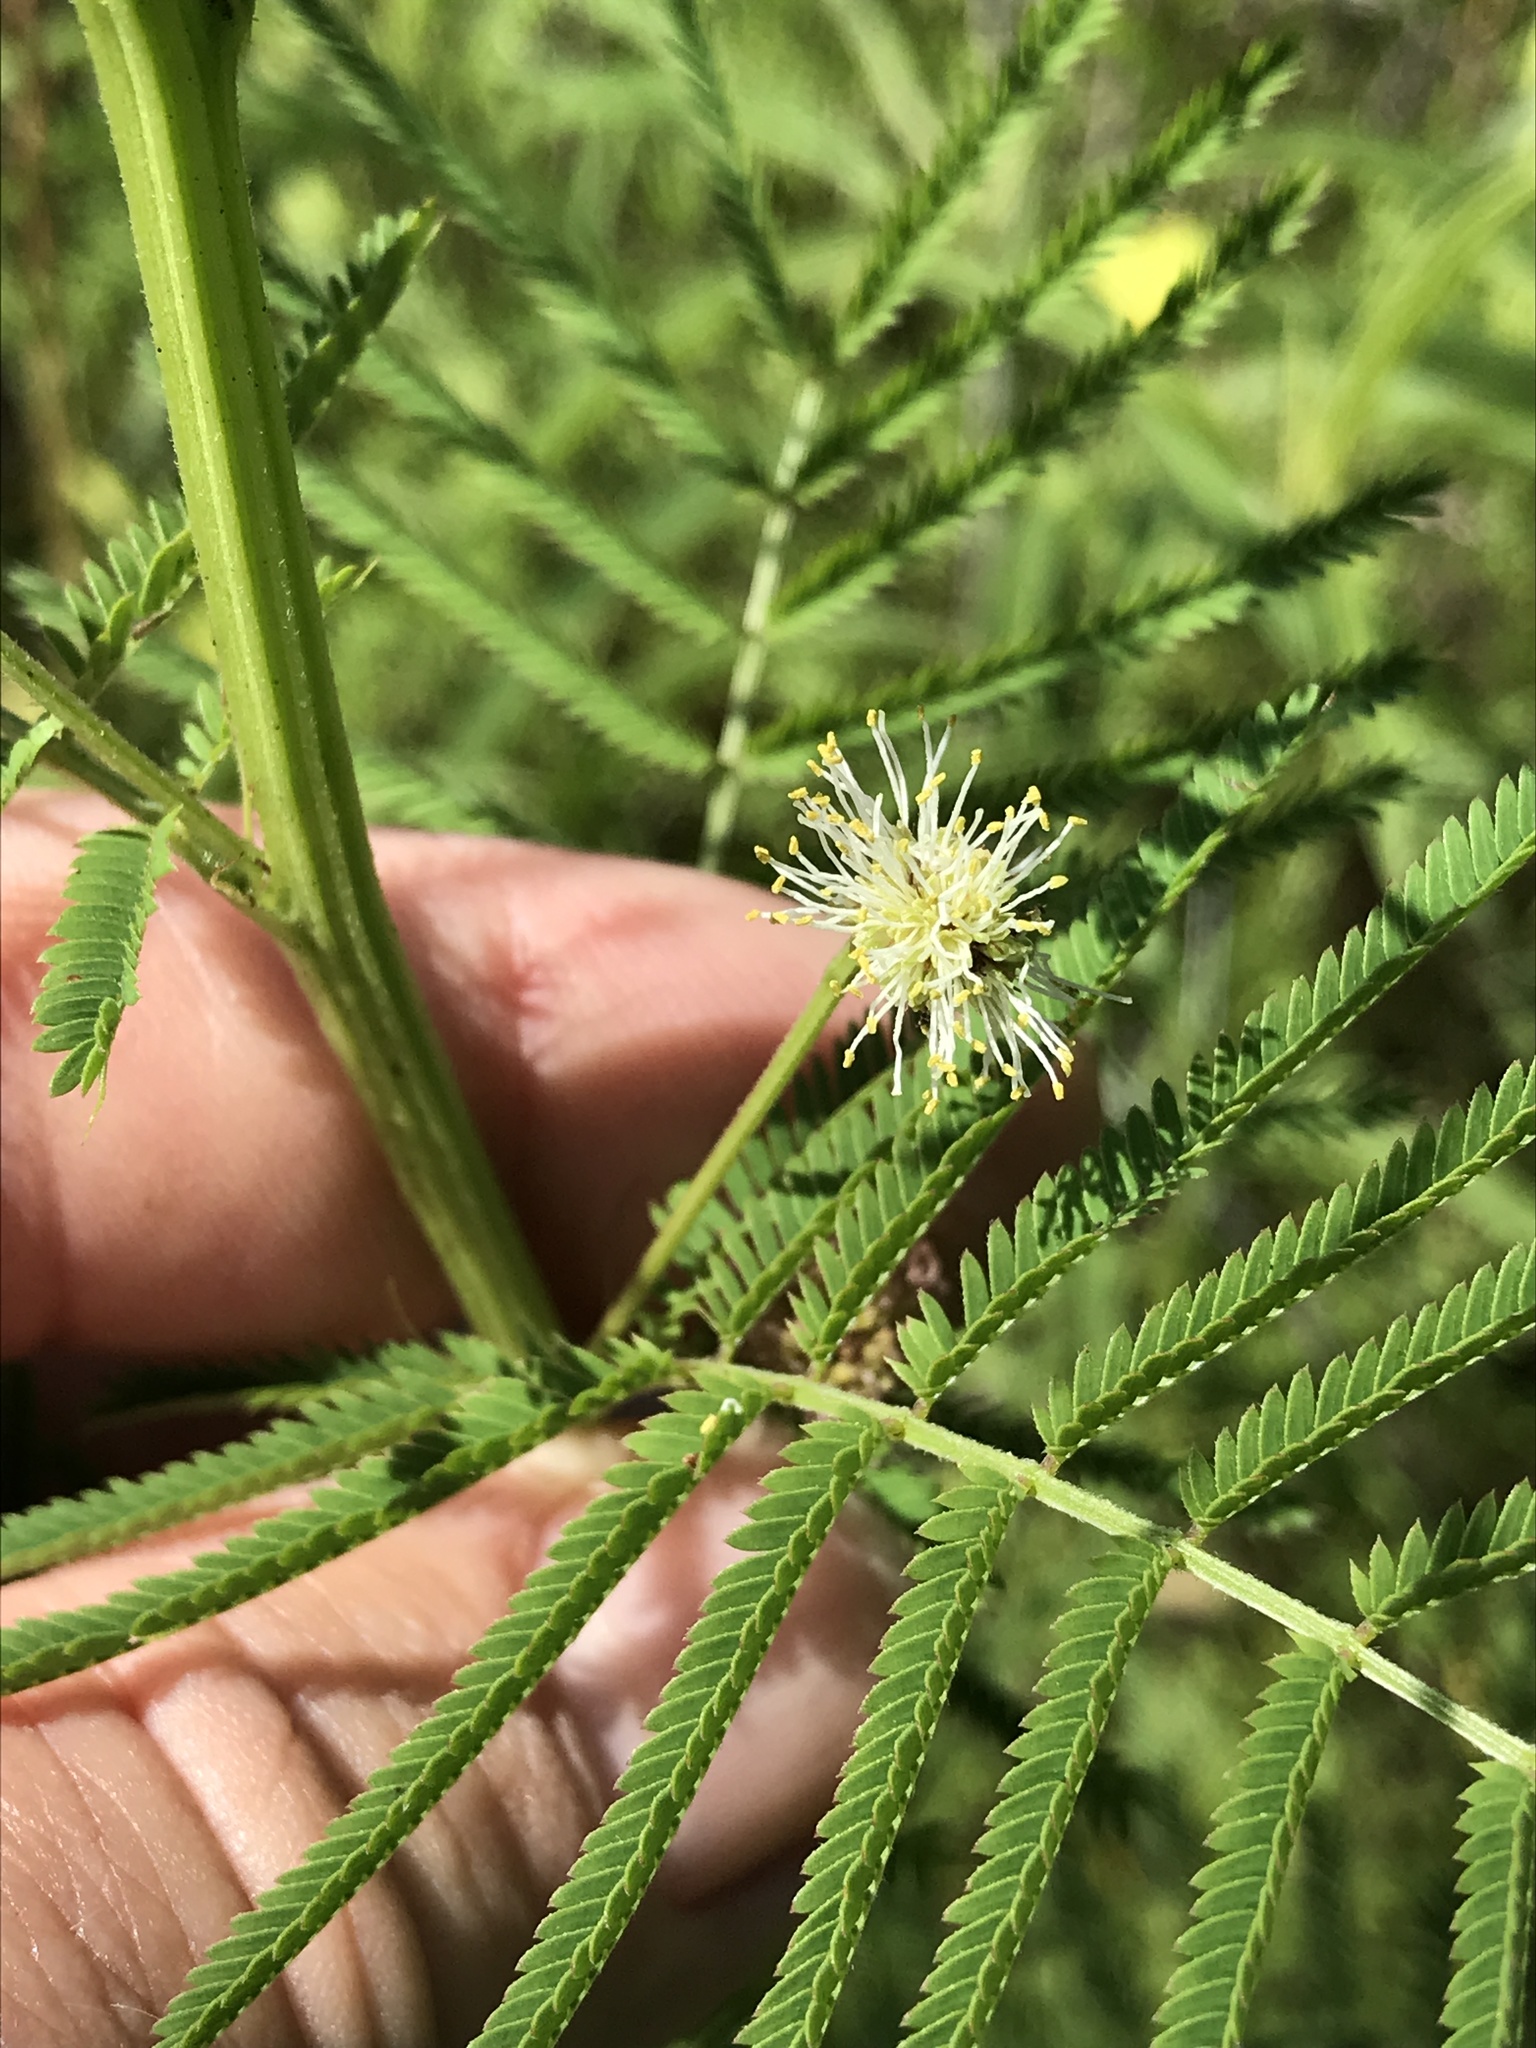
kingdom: Plantae
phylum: Tracheophyta
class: Magnoliopsida
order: Fabales
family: Fabaceae
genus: Desmanthus
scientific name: Desmanthus illinoensis
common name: Illinois bundle-flower
